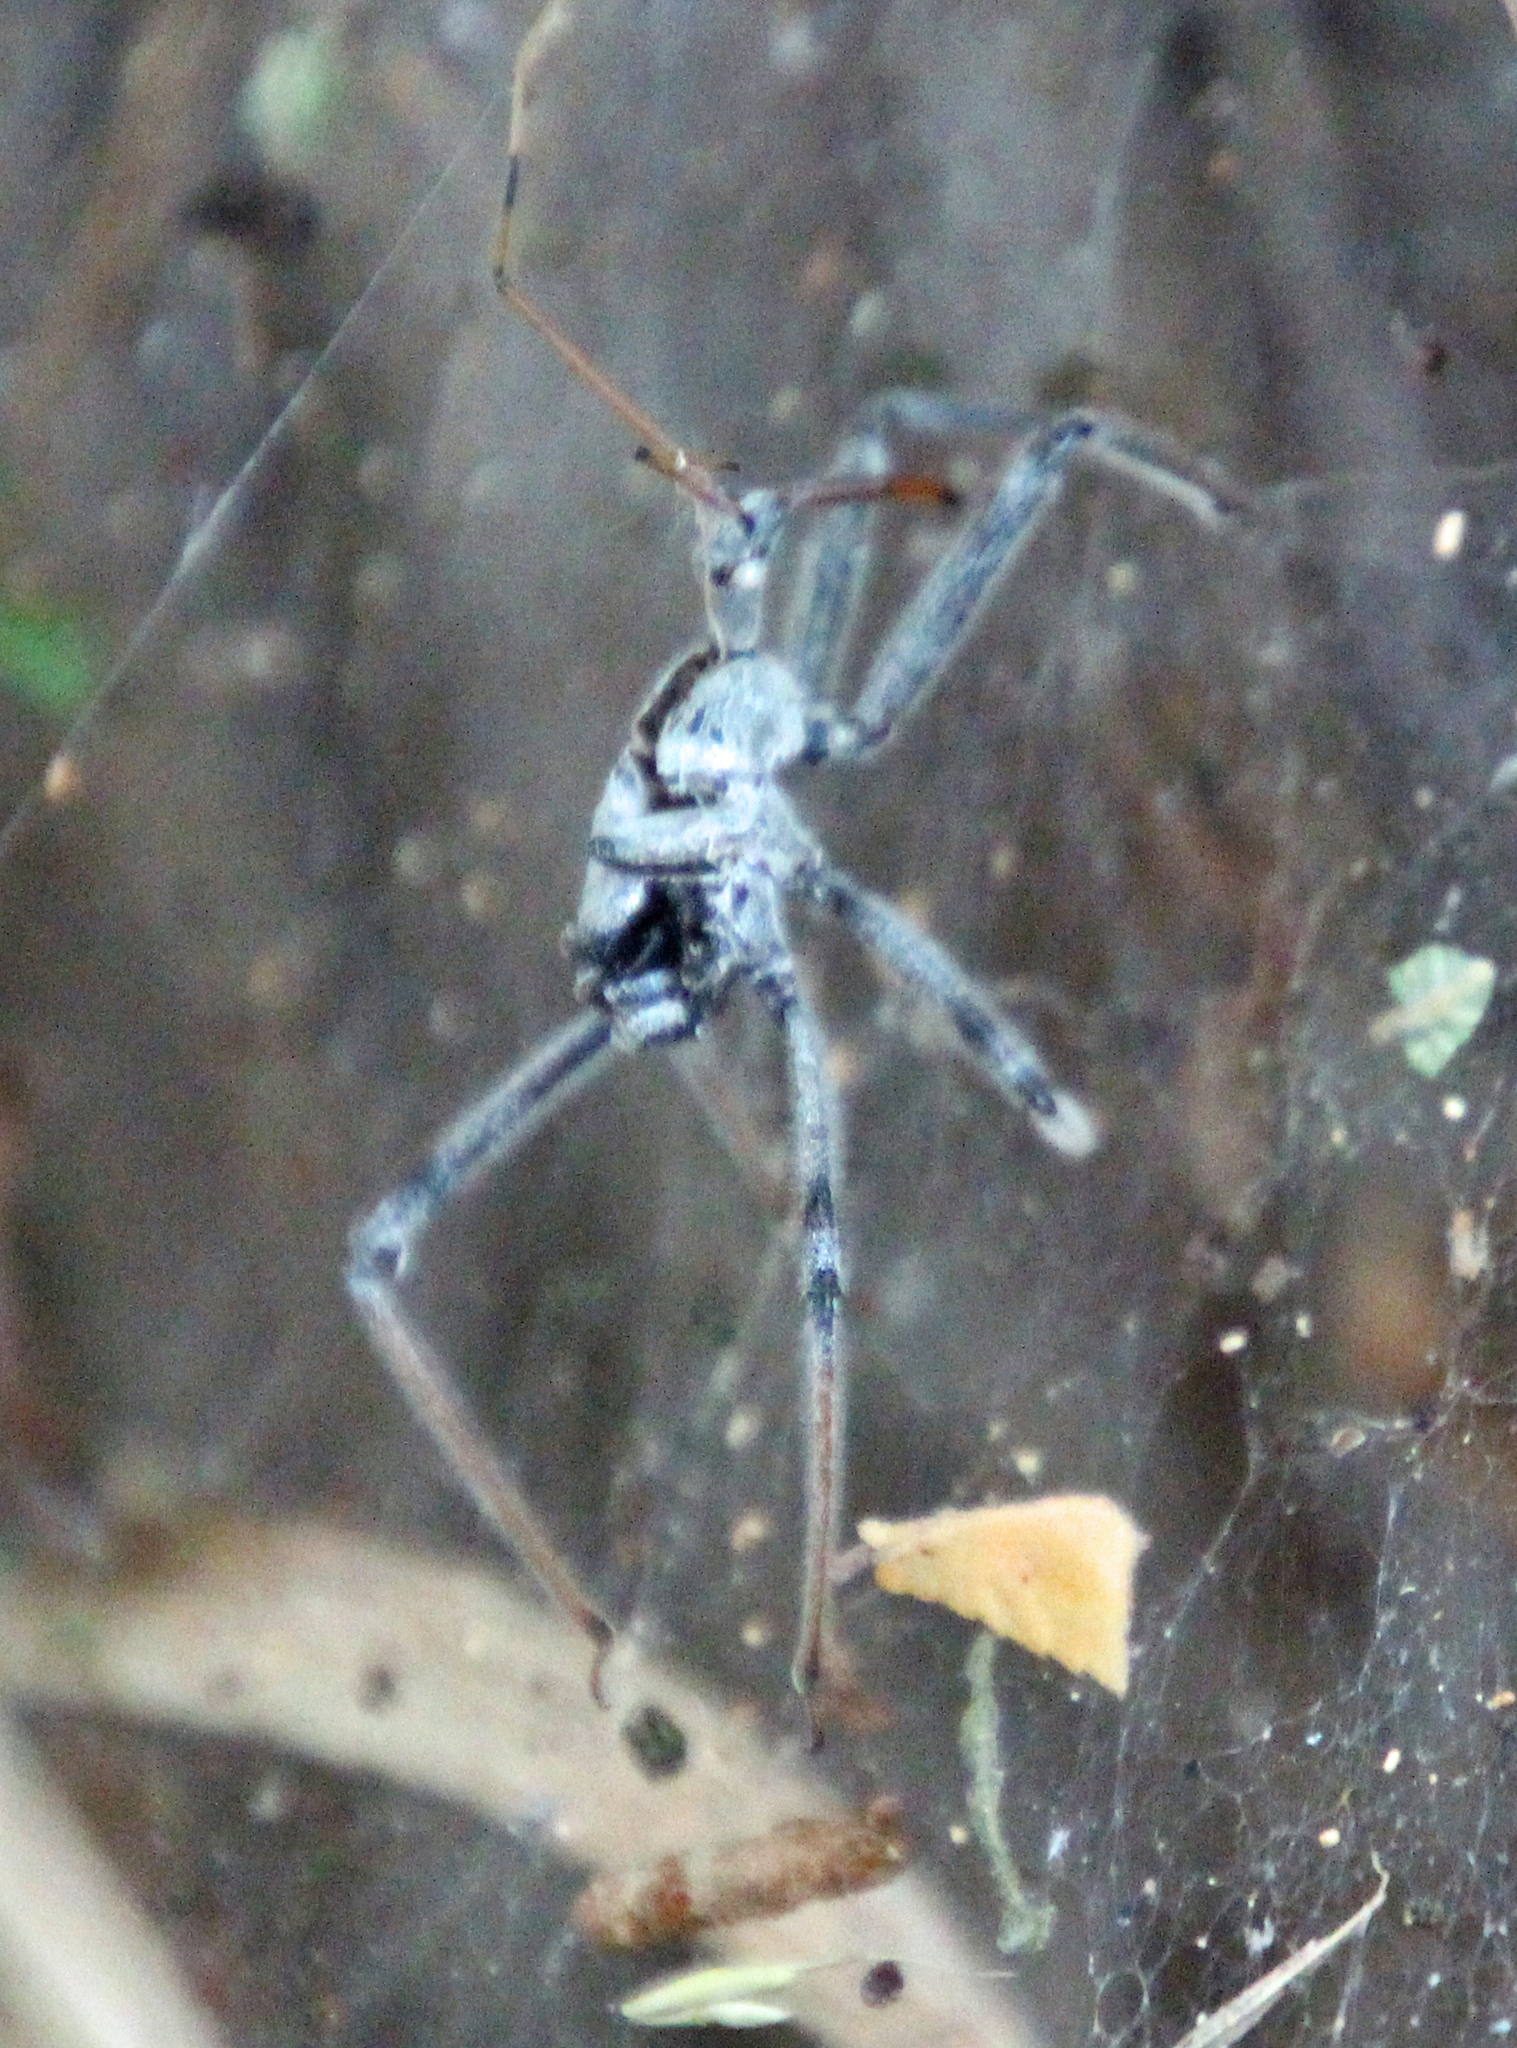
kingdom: Animalia
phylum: Arthropoda
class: Insecta
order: Hemiptera
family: Reduviidae
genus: Arilus
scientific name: Arilus cristatus
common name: North american wheel bug
